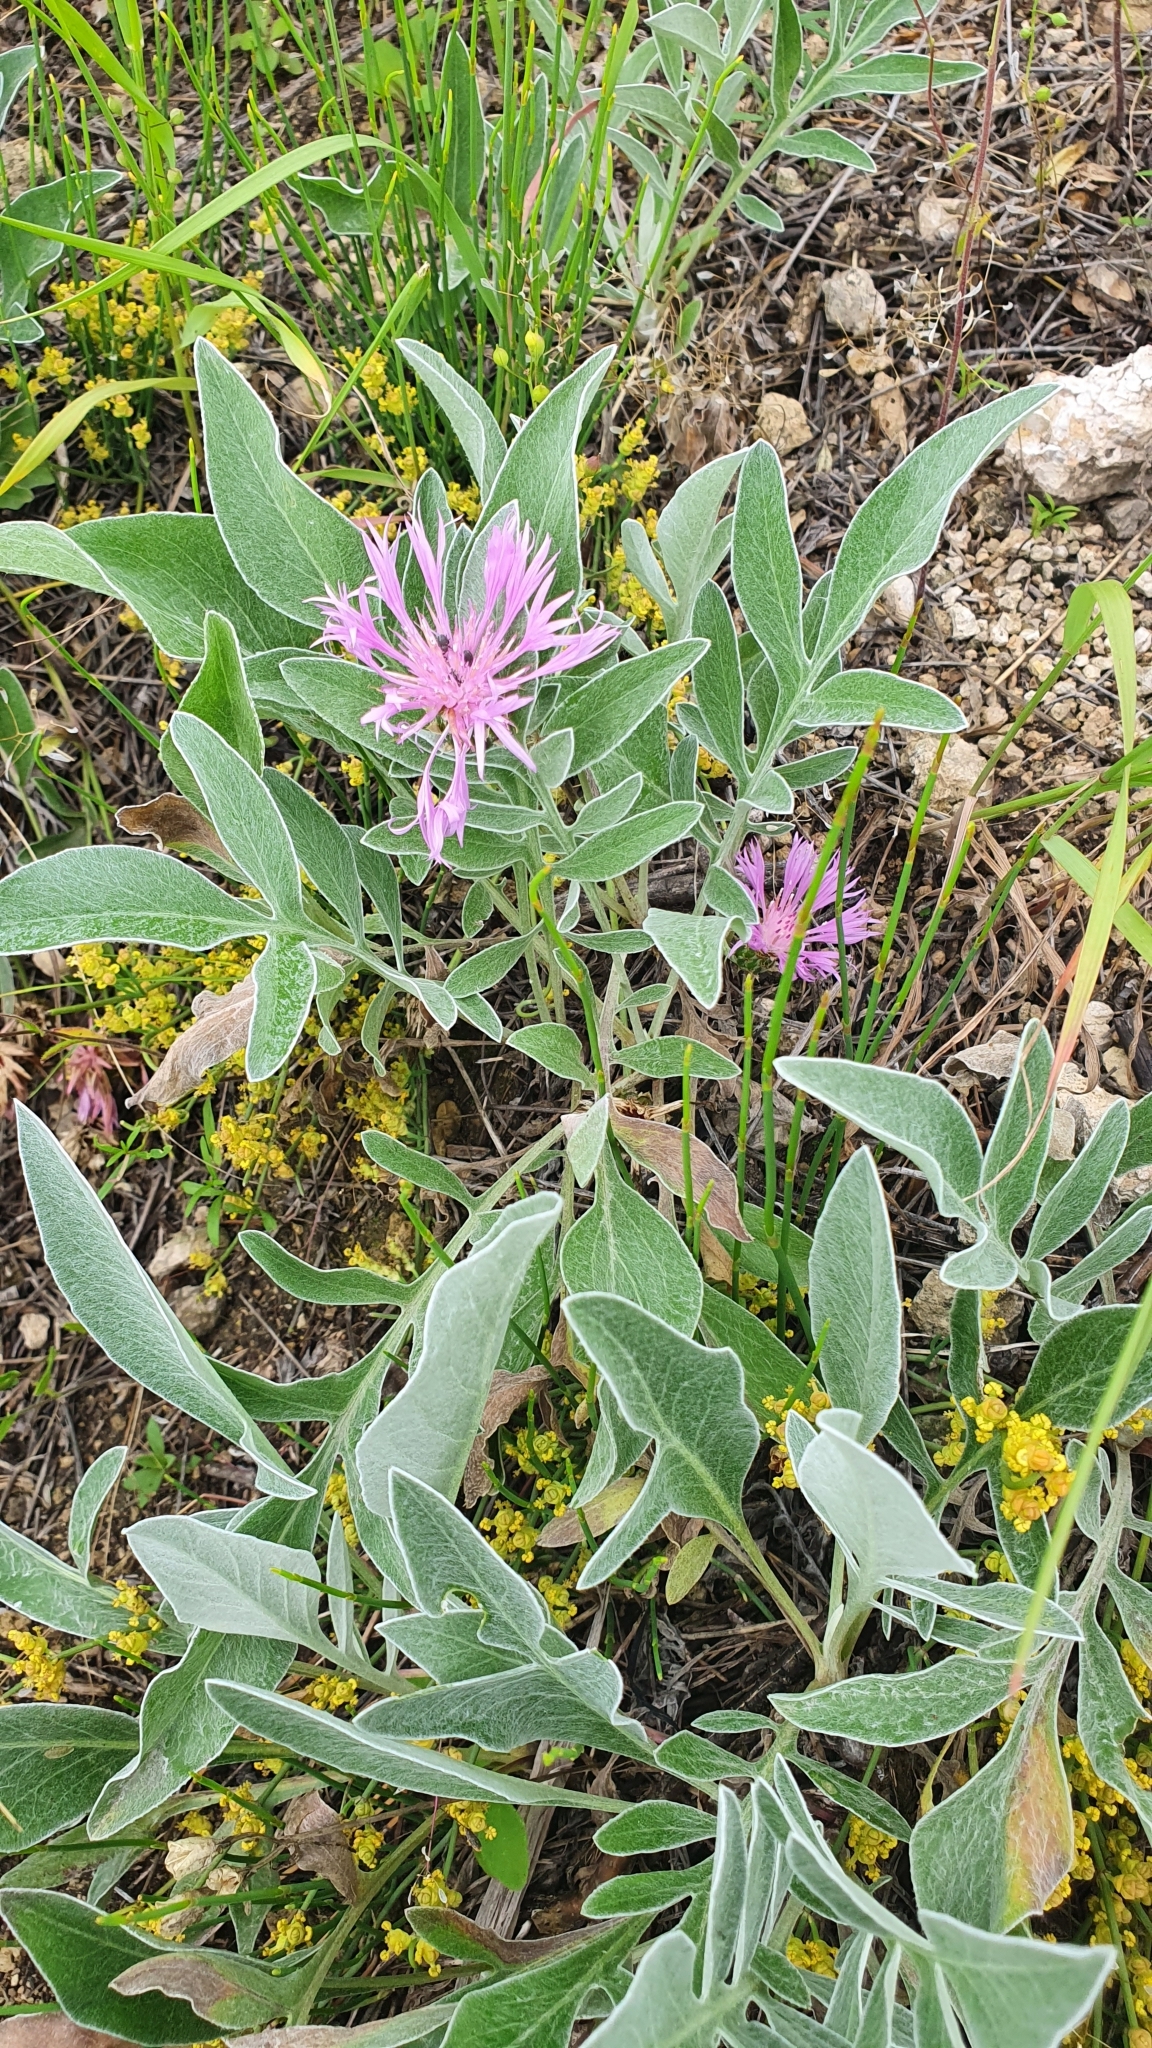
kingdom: Plantae
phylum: Tracheophyta
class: Magnoliopsida
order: Asterales
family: Asteraceae
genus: Psephellus
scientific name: Psephellus sumensis
